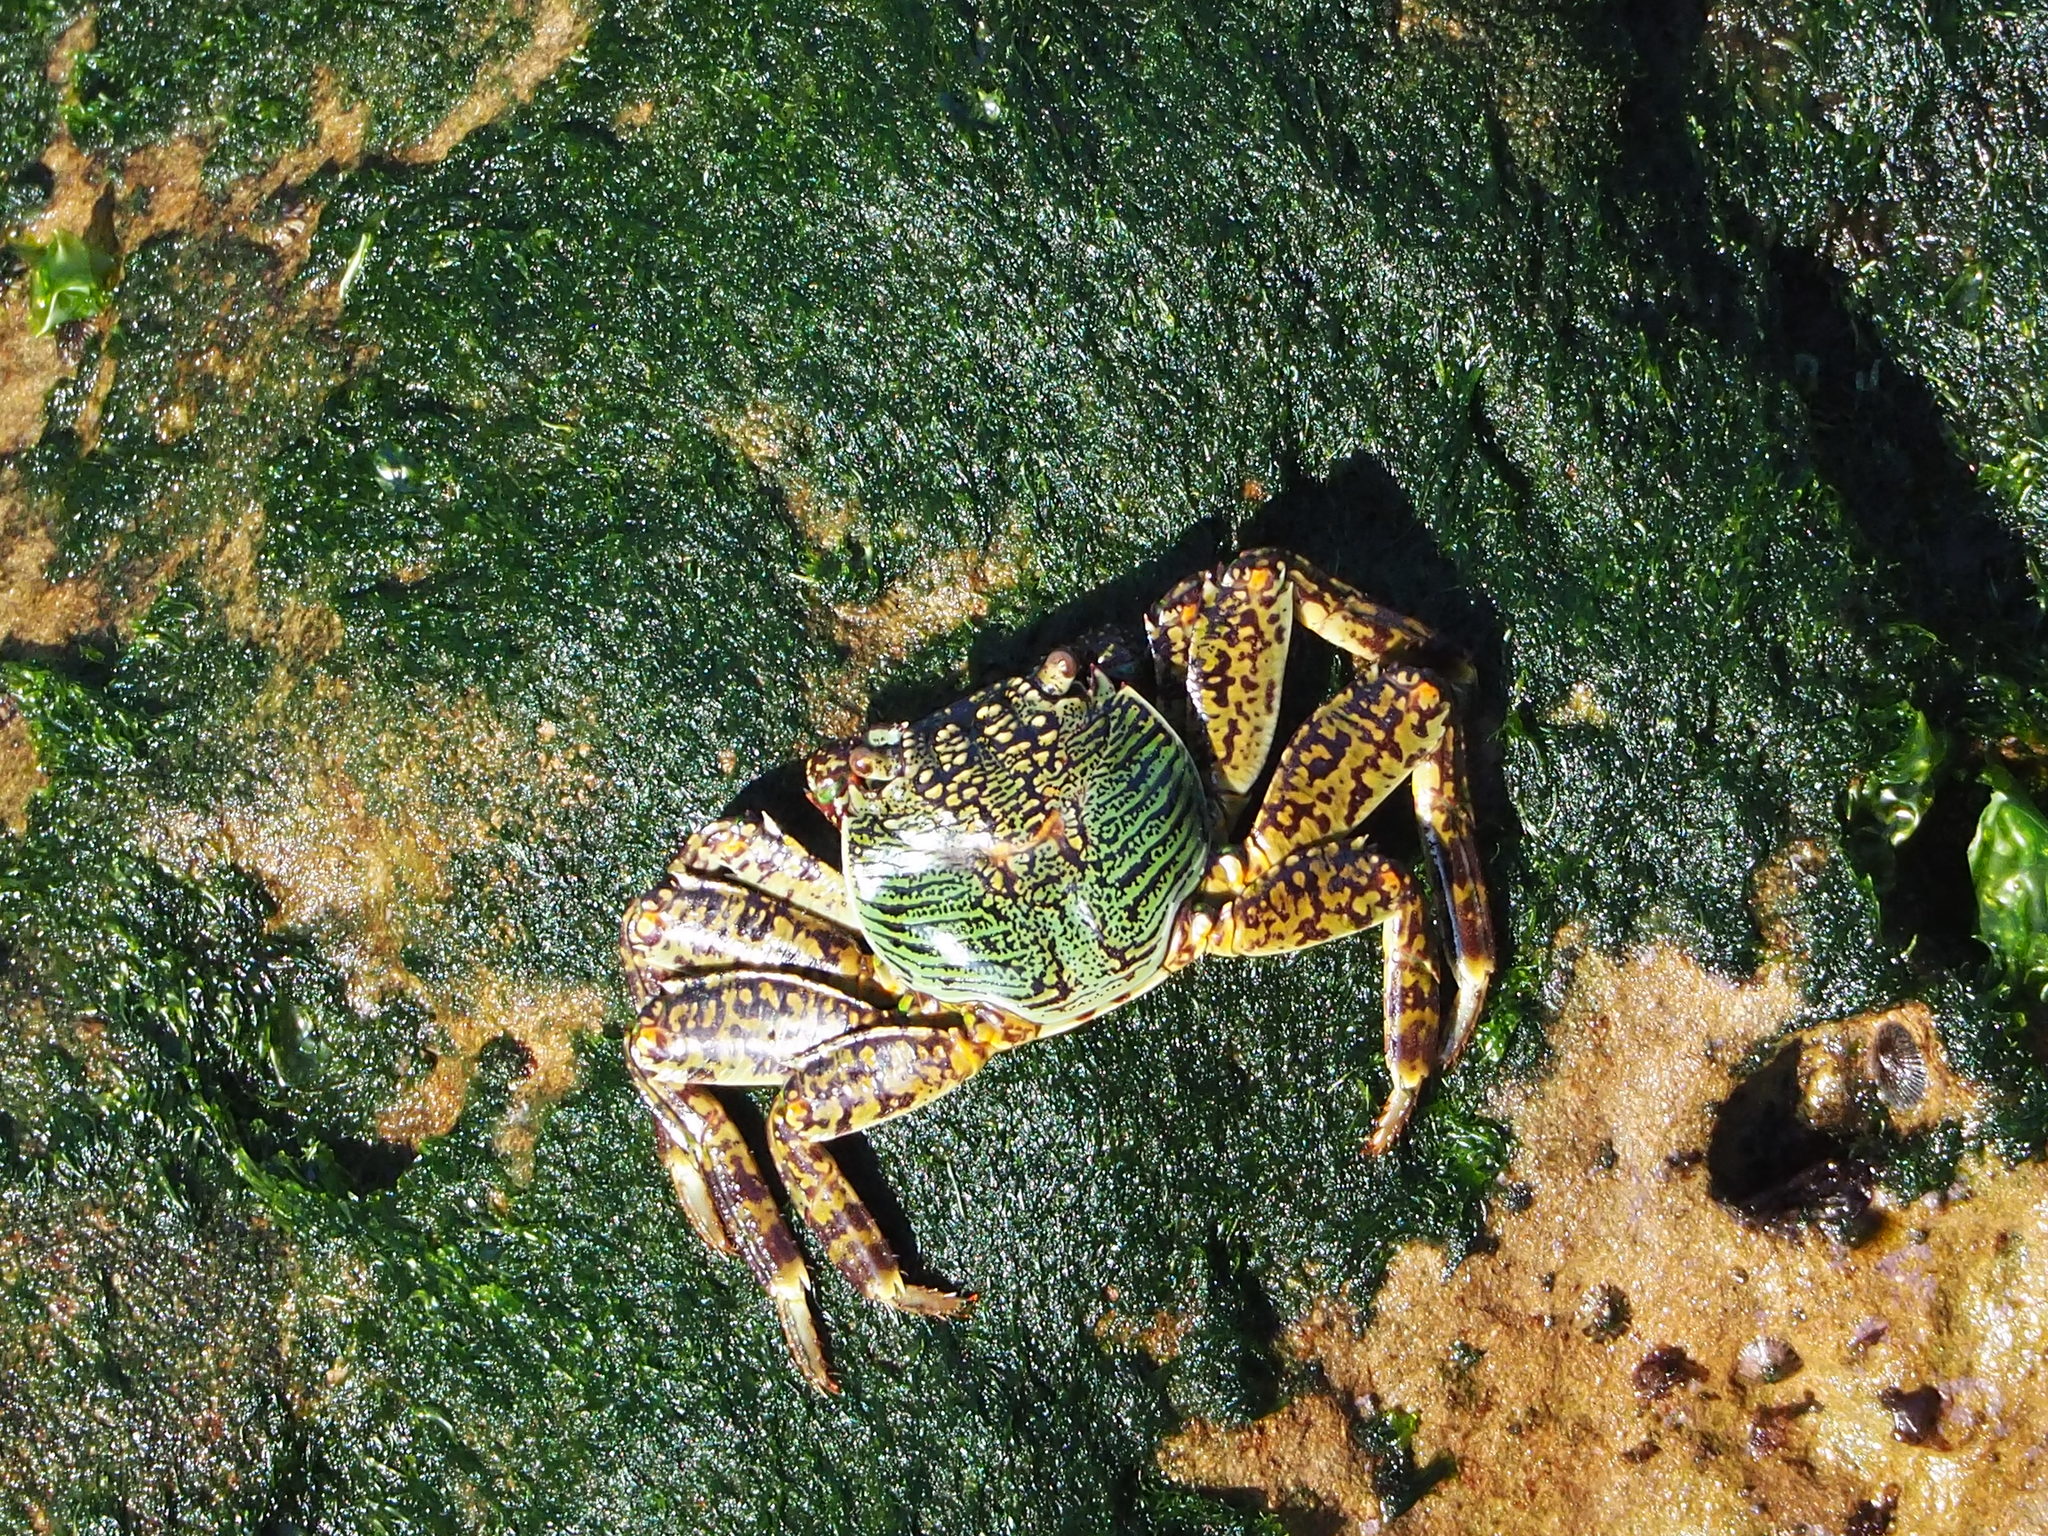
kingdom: Animalia
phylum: Arthropoda
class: Malacostraca
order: Decapoda
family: Grapsidae
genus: Grapsus
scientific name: Grapsus albolineatus
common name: Mottled lightfoot crab
